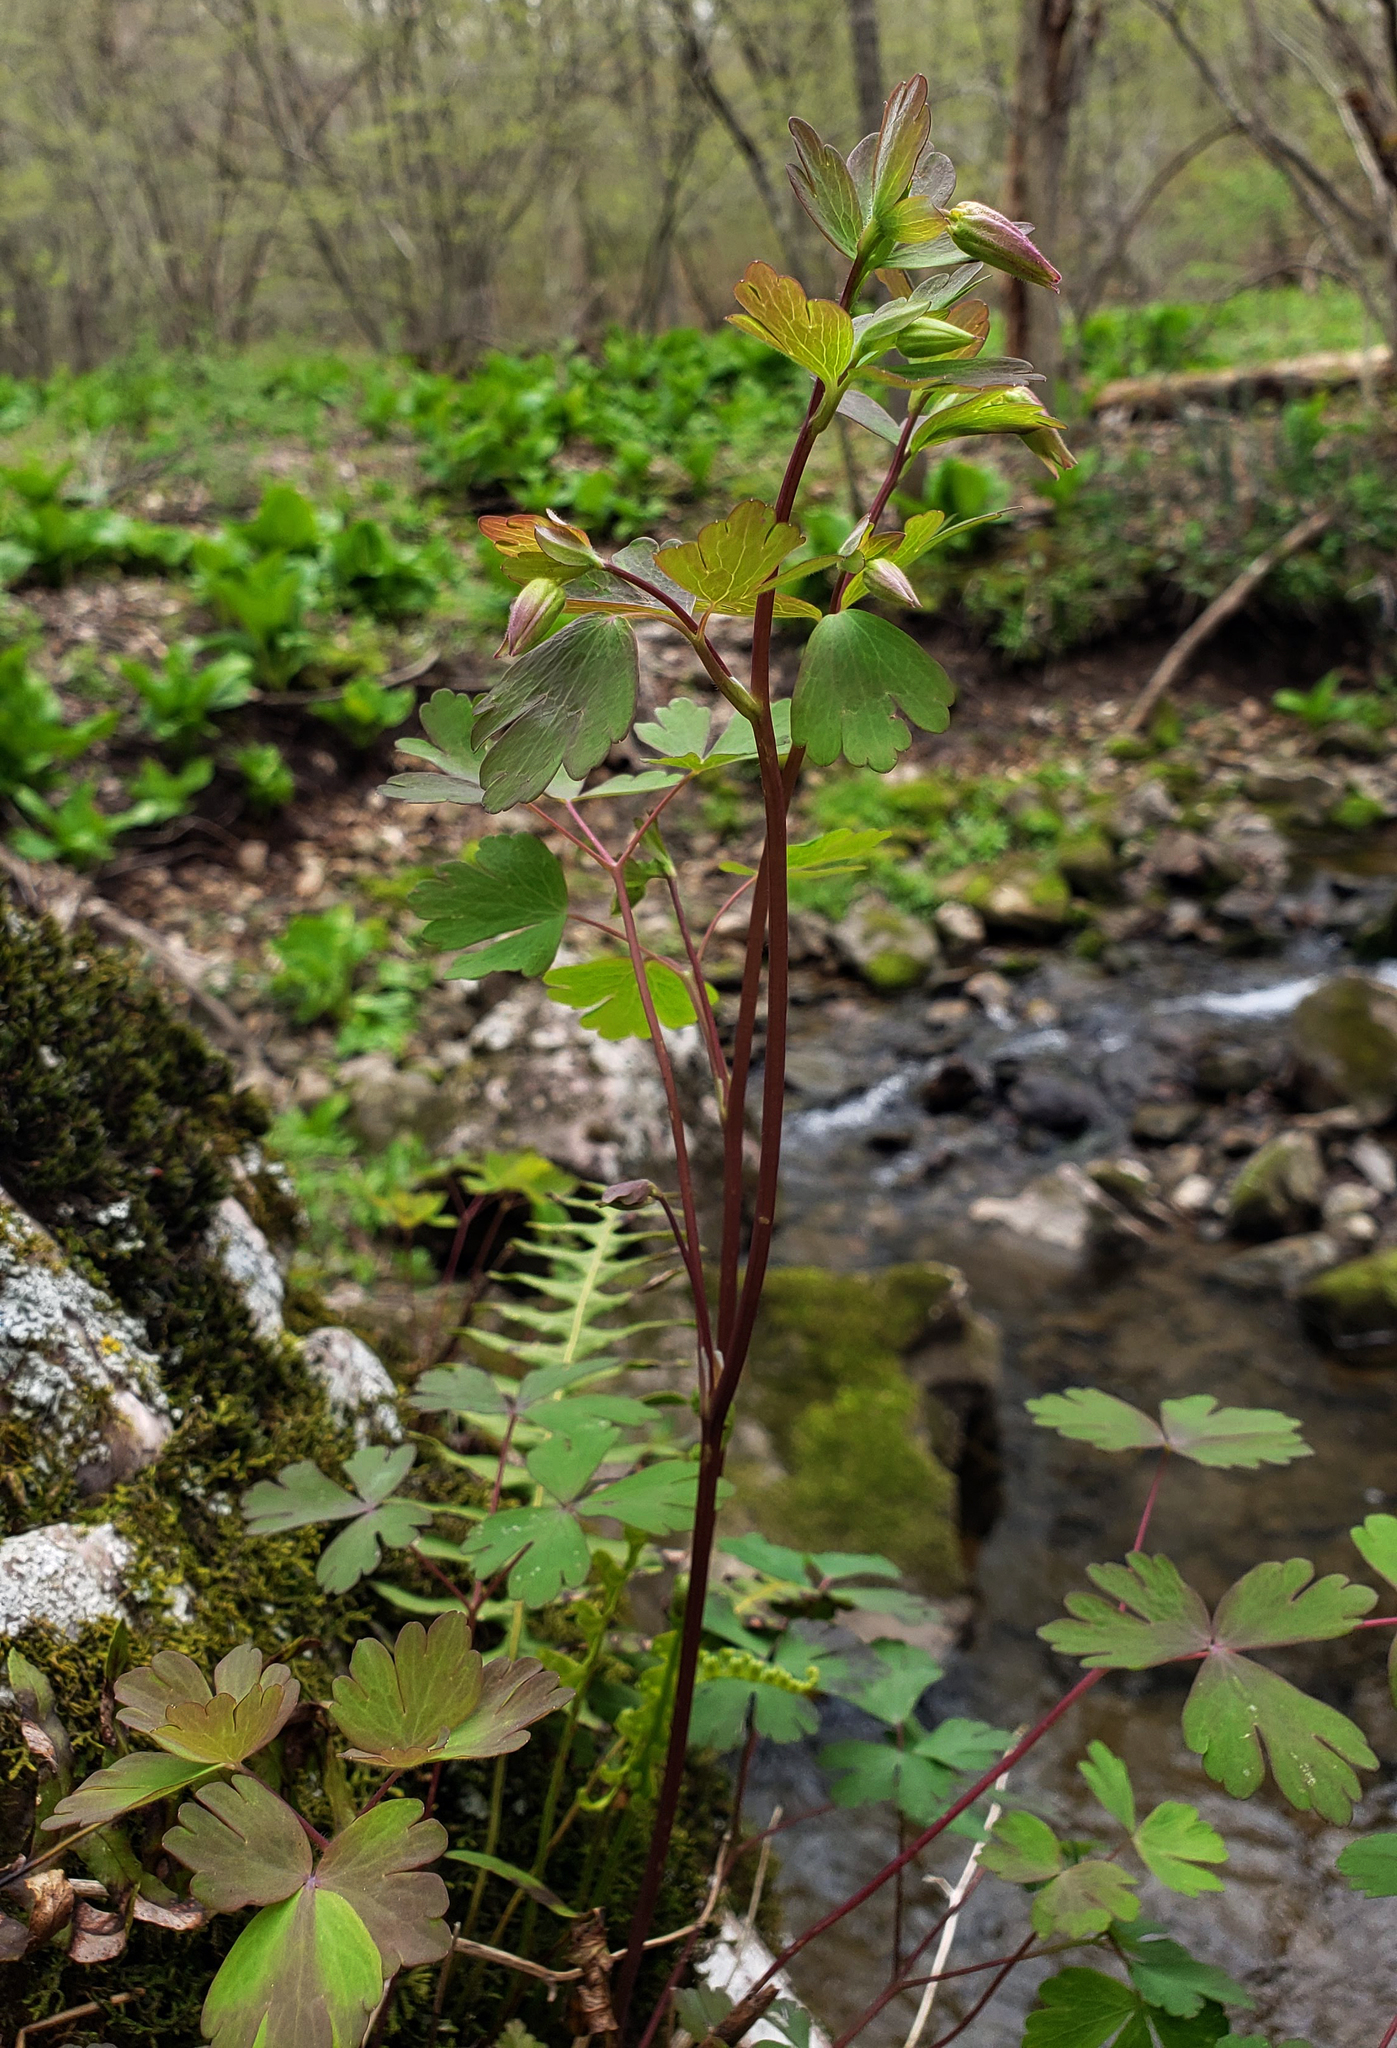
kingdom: Plantae
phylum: Tracheophyta
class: Magnoliopsida
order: Ranunculales
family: Ranunculaceae
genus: Aquilegia
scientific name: Aquilegia canadensis
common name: American columbine
